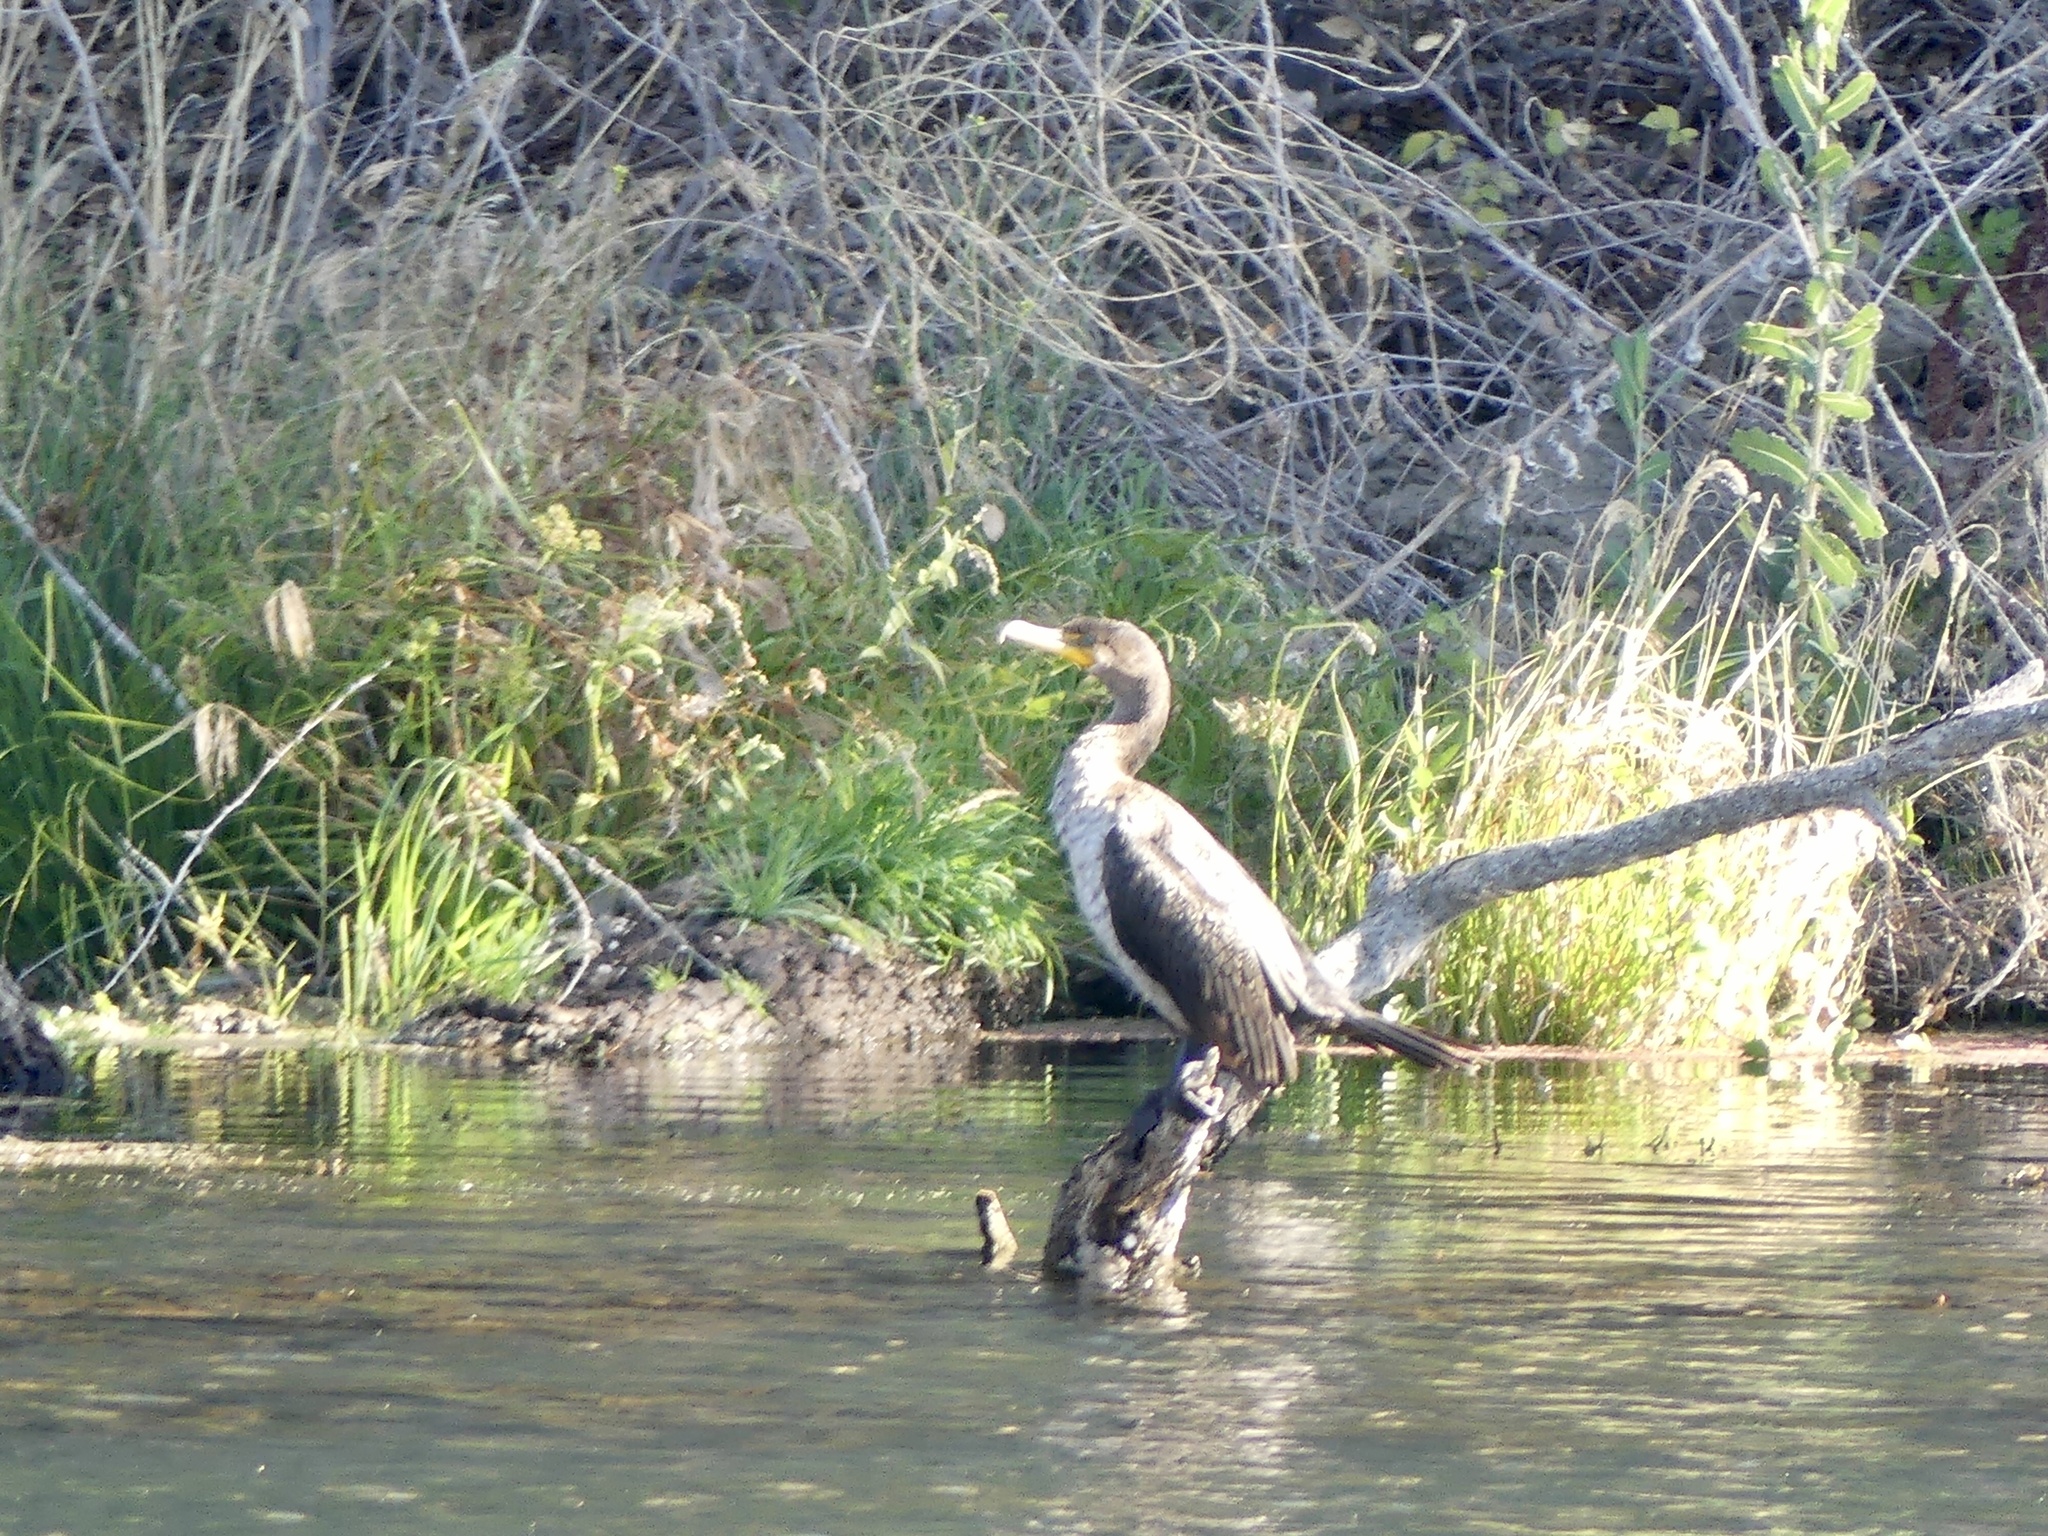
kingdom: Animalia
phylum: Chordata
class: Aves
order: Suliformes
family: Phalacrocoracidae
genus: Phalacrocorax
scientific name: Phalacrocorax auritus
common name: Double-crested cormorant
